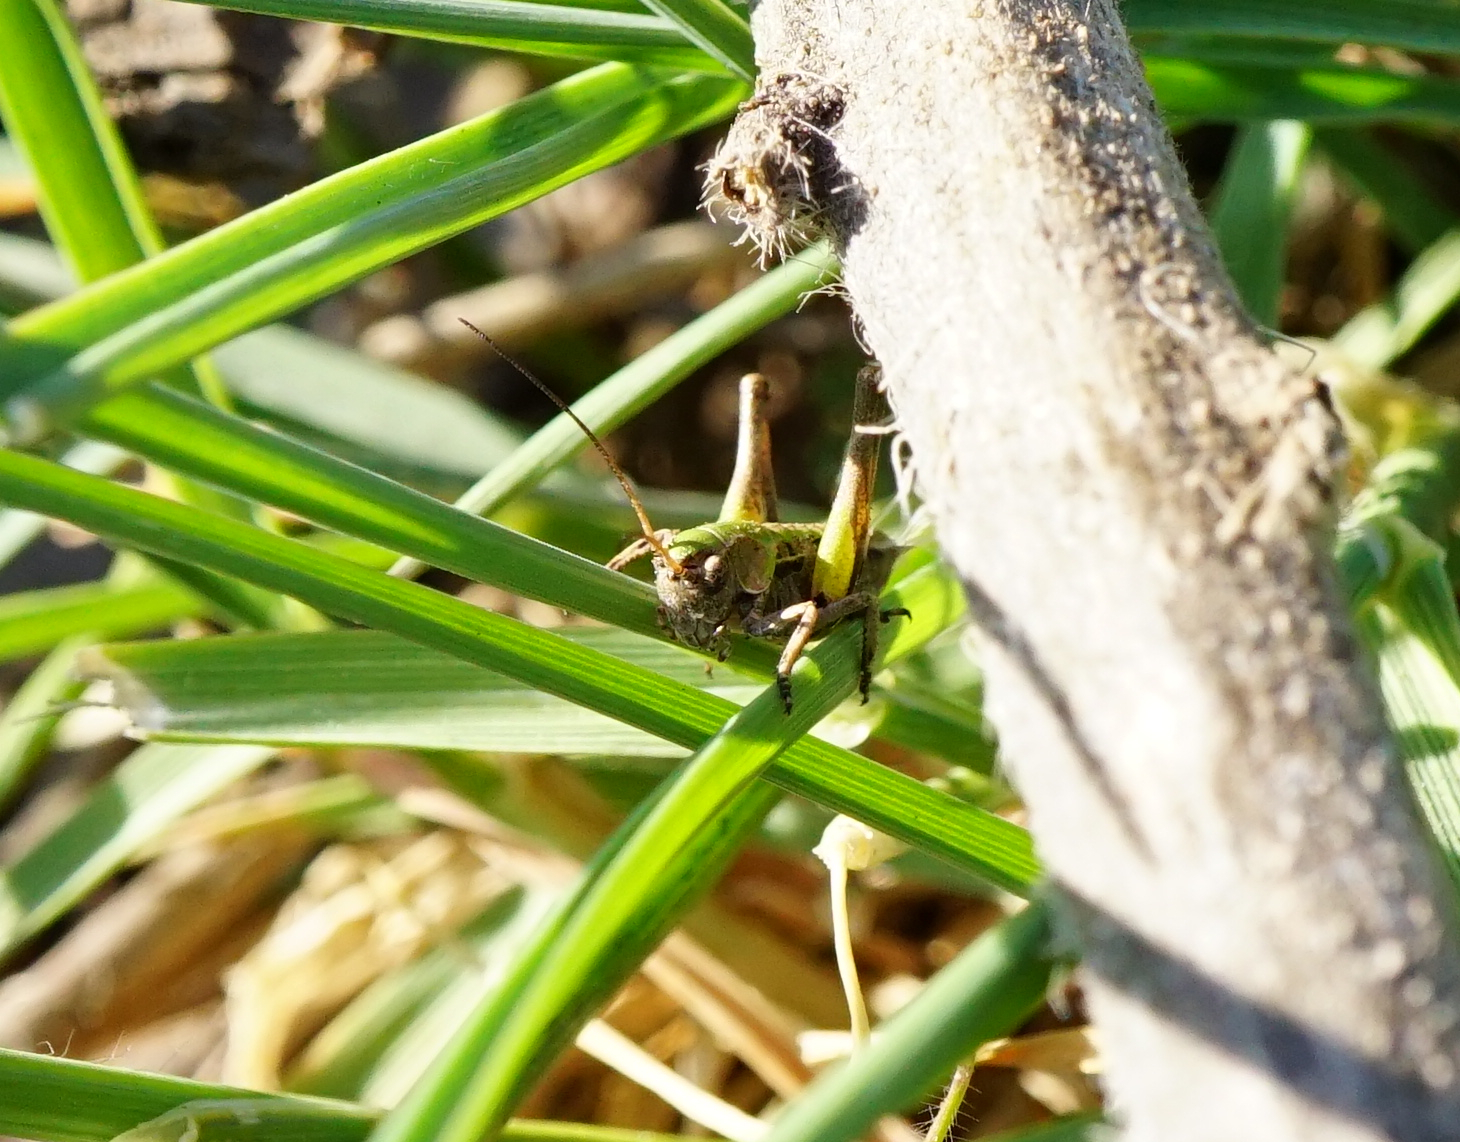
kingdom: Animalia
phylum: Arthropoda
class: Insecta
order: Orthoptera
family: Tettigoniidae
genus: Decticus
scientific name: Decticus verrucivorus
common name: Wart-biter
